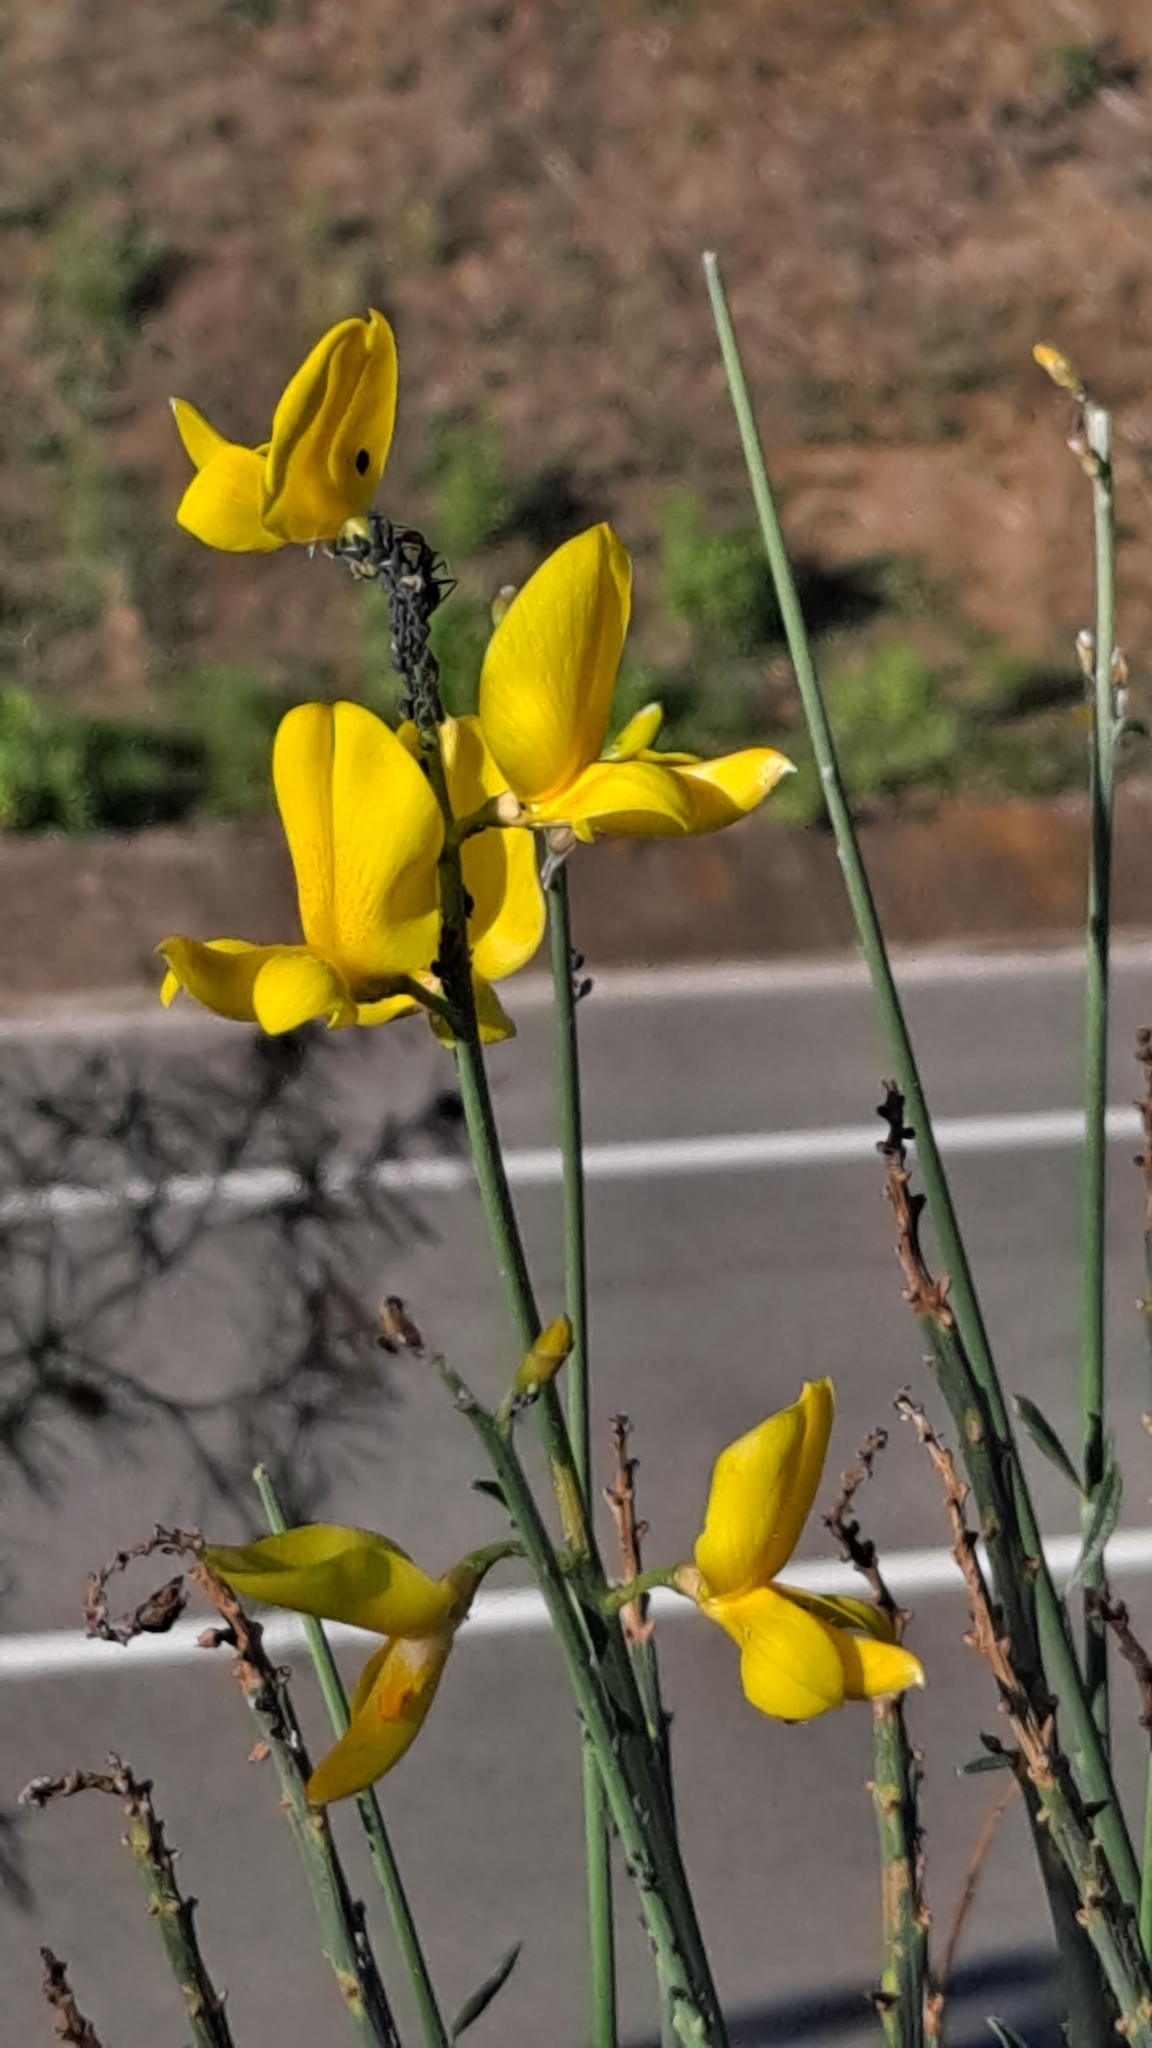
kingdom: Plantae
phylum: Tracheophyta
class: Magnoliopsida
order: Fabales
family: Fabaceae
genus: Spartium
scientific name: Spartium junceum
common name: Spanish broom
